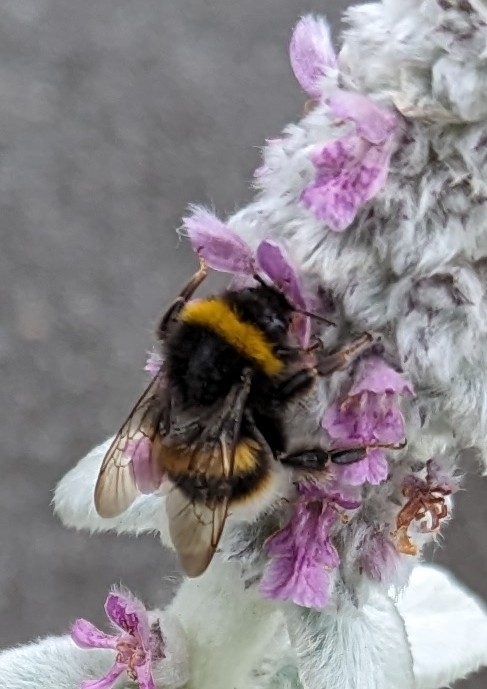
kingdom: Animalia
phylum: Arthropoda
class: Insecta
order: Hymenoptera
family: Apidae
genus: Bombus
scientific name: Bombus terrestris
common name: Buff-tailed bumblebee
